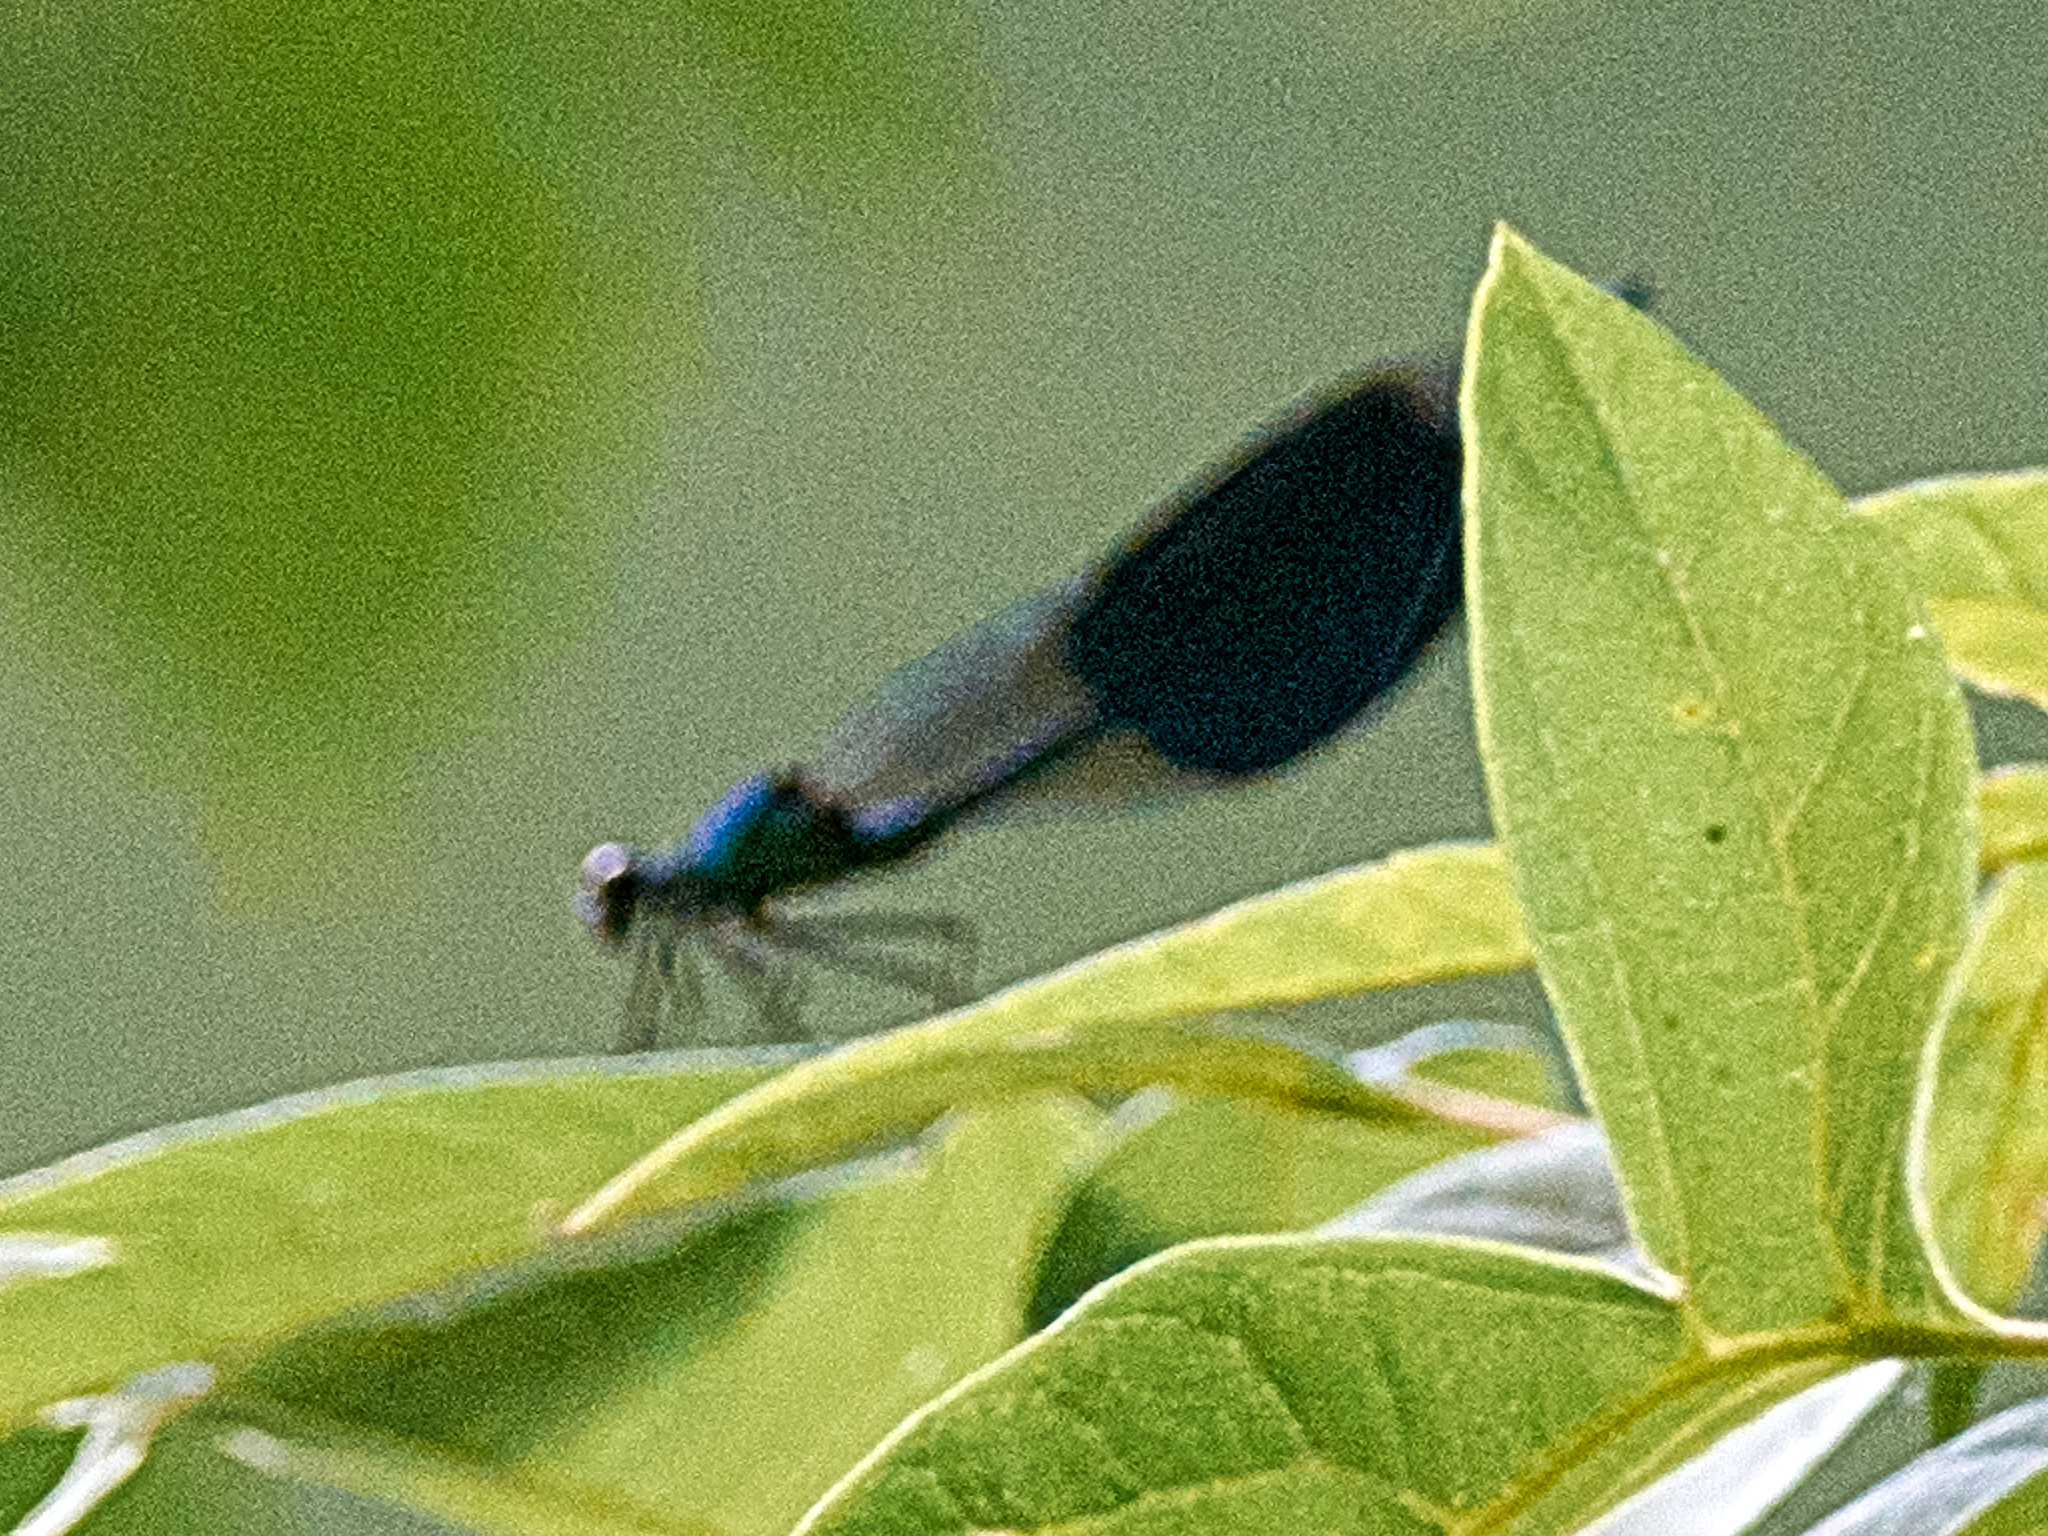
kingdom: Animalia
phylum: Arthropoda
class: Insecta
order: Odonata
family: Calopterygidae
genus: Calopteryx
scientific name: Calopteryx splendens
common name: Banded demoiselle
